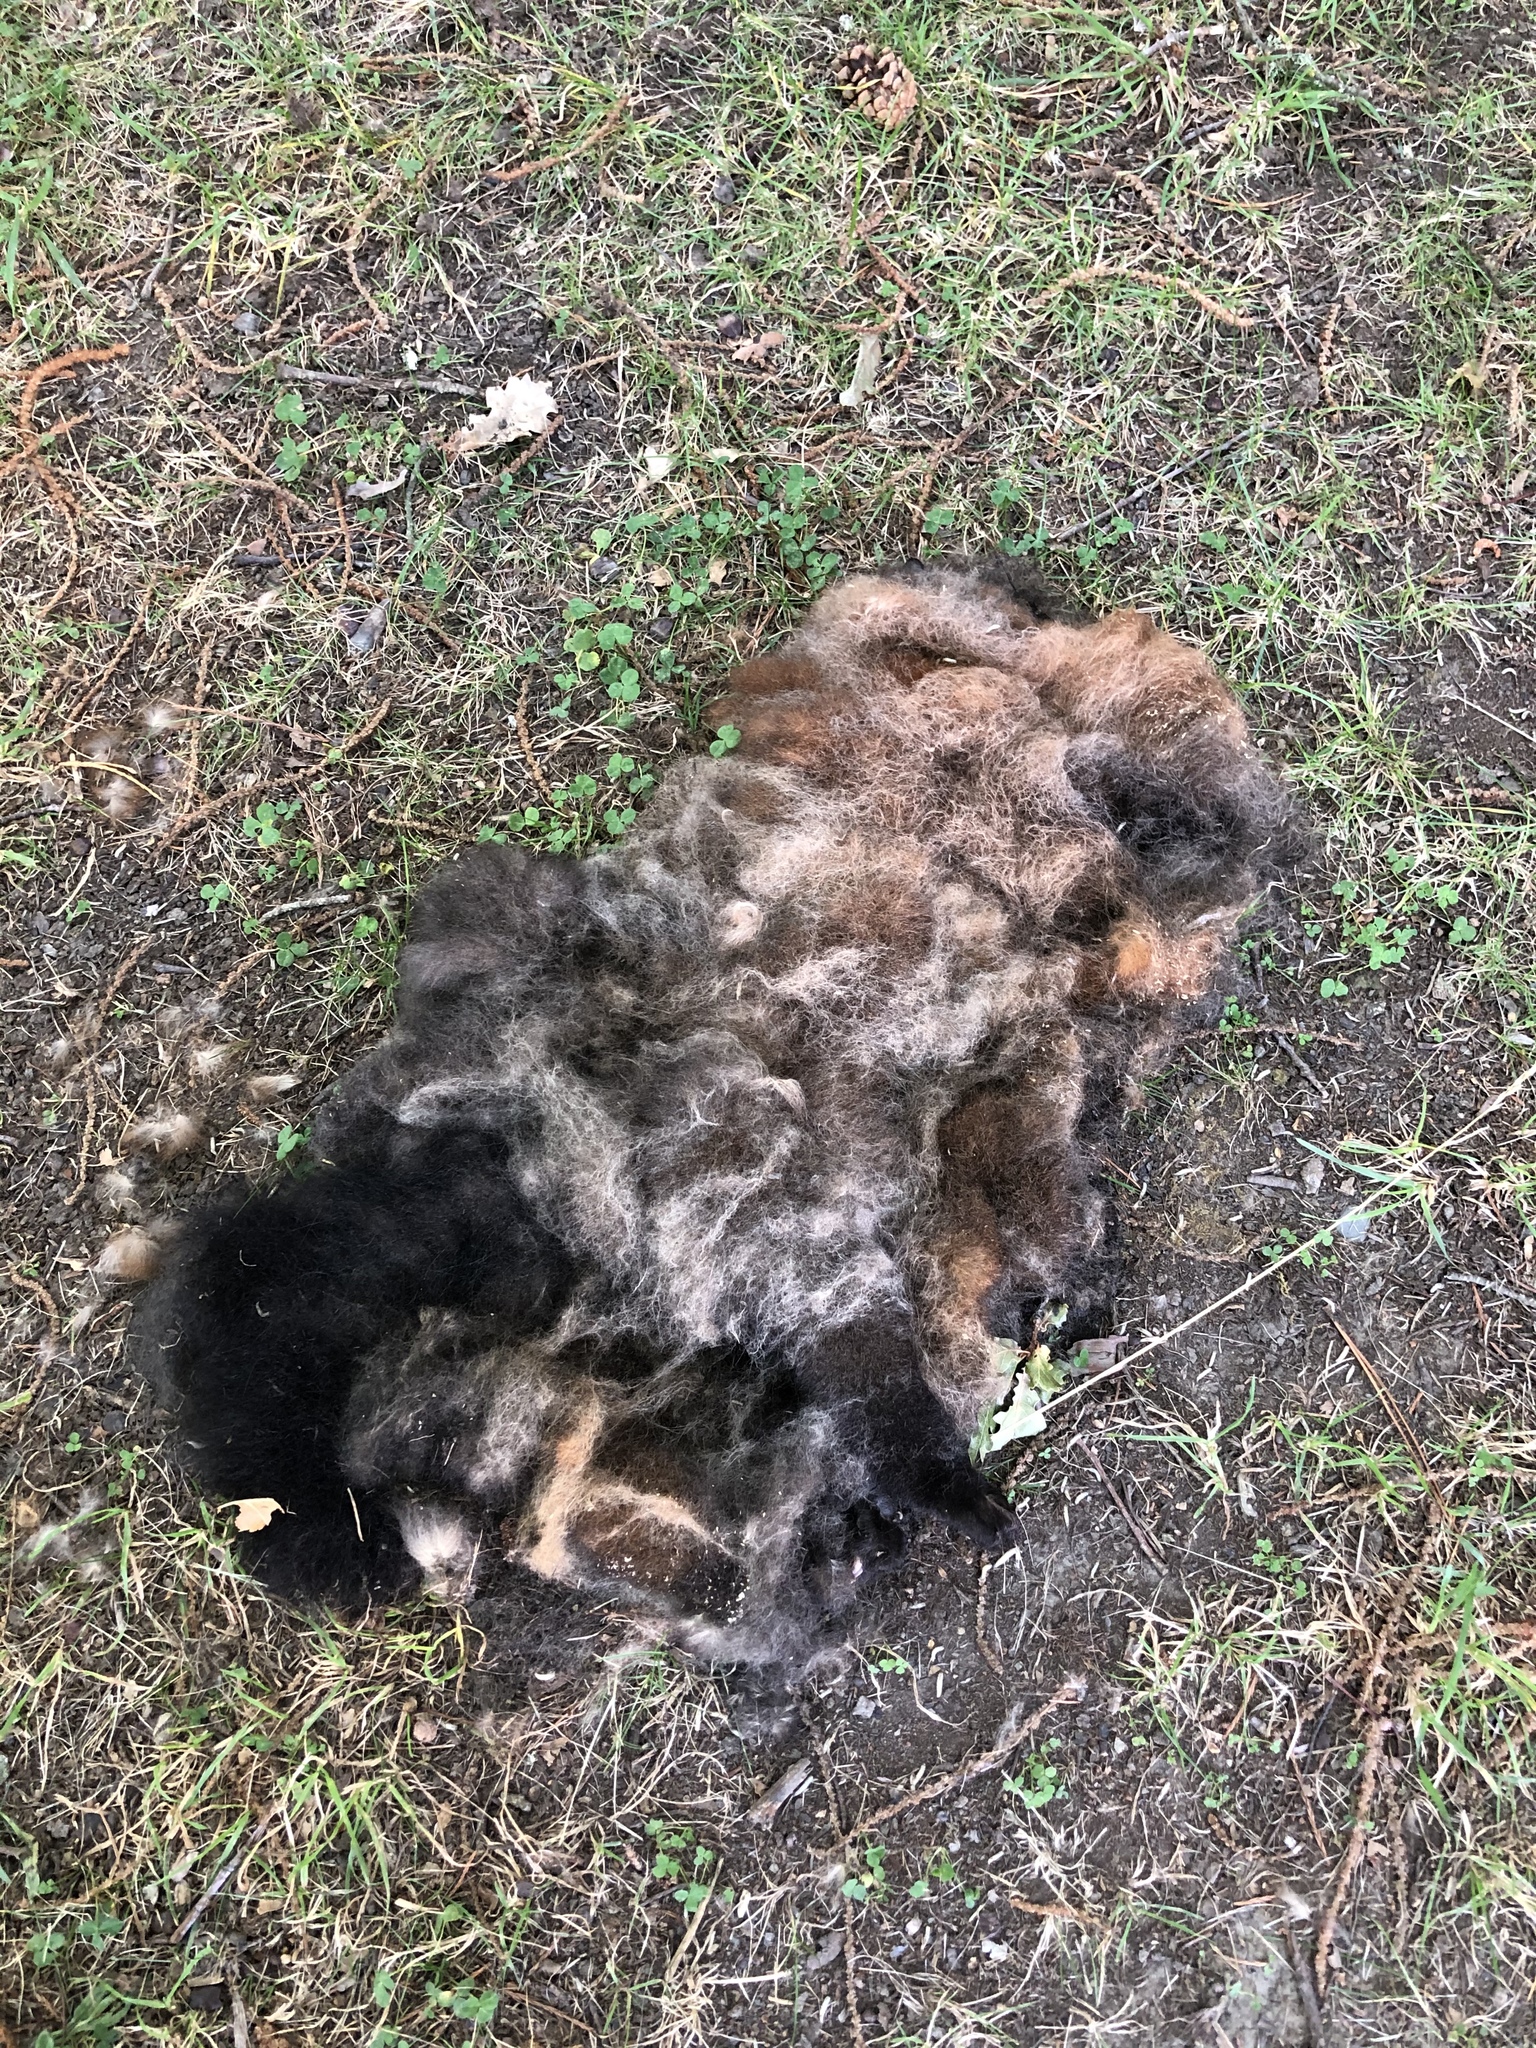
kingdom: Animalia
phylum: Chordata
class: Mammalia
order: Diprotodontia
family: Phalangeridae
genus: Trichosurus
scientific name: Trichosurus vulpecula
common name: Common brushtail
